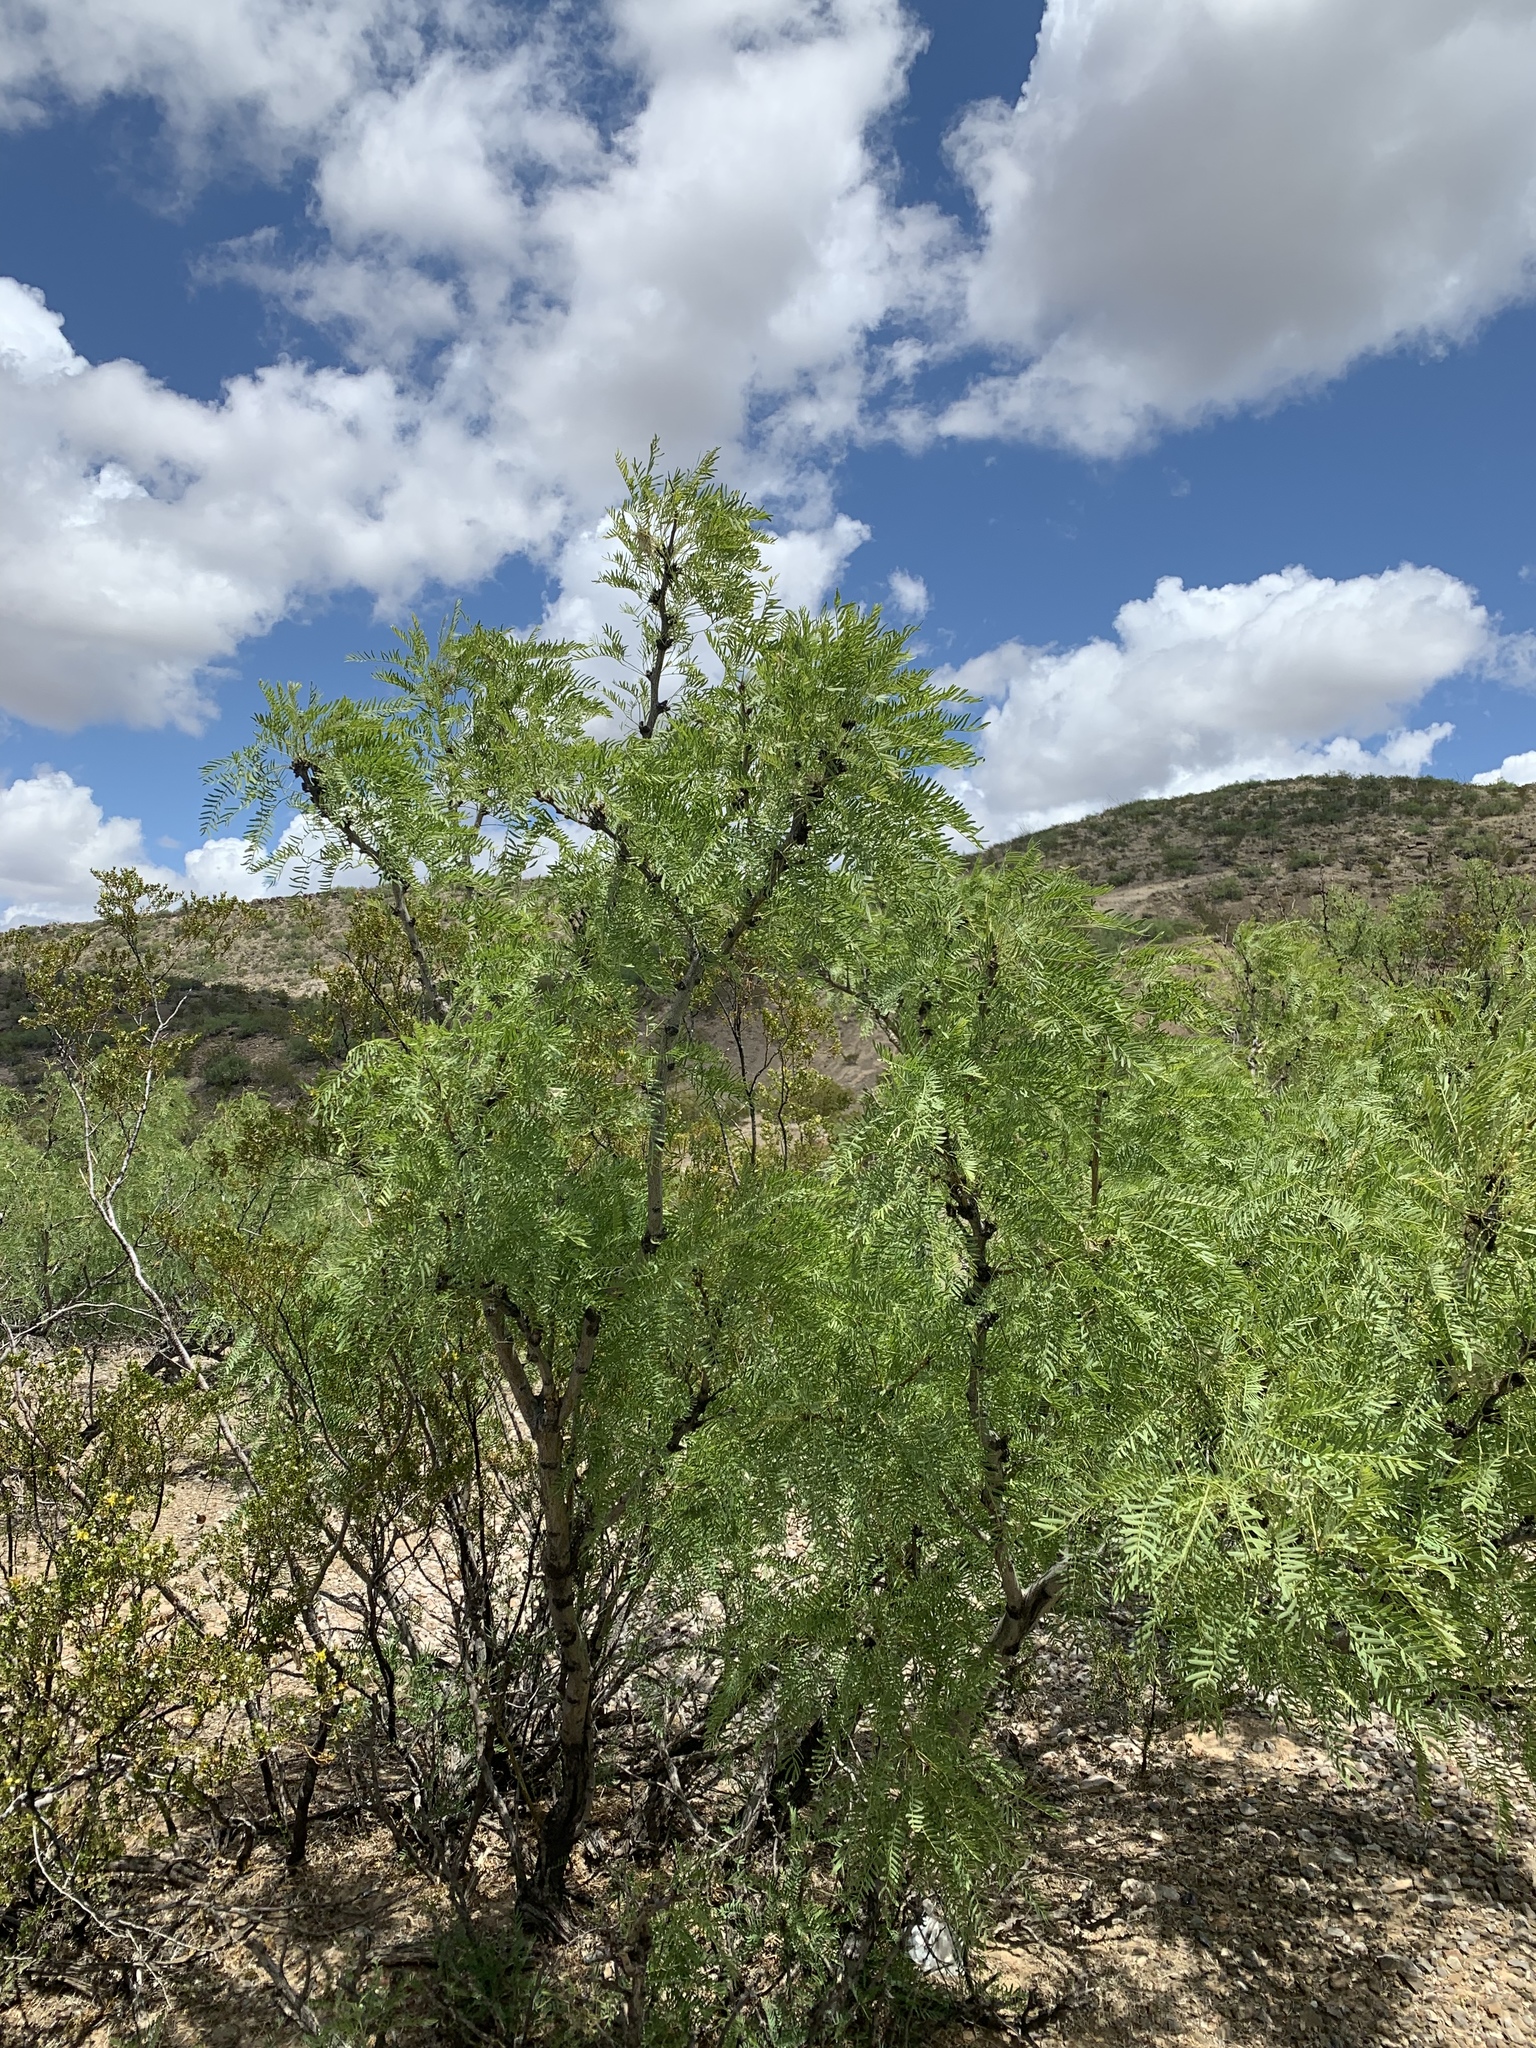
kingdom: Plantae
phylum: Tracheophyta
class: Magnoliopsida
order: Fabales
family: Fabaceae
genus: Prosopis
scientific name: Prosopis glandulosa
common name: Honey mesquite
